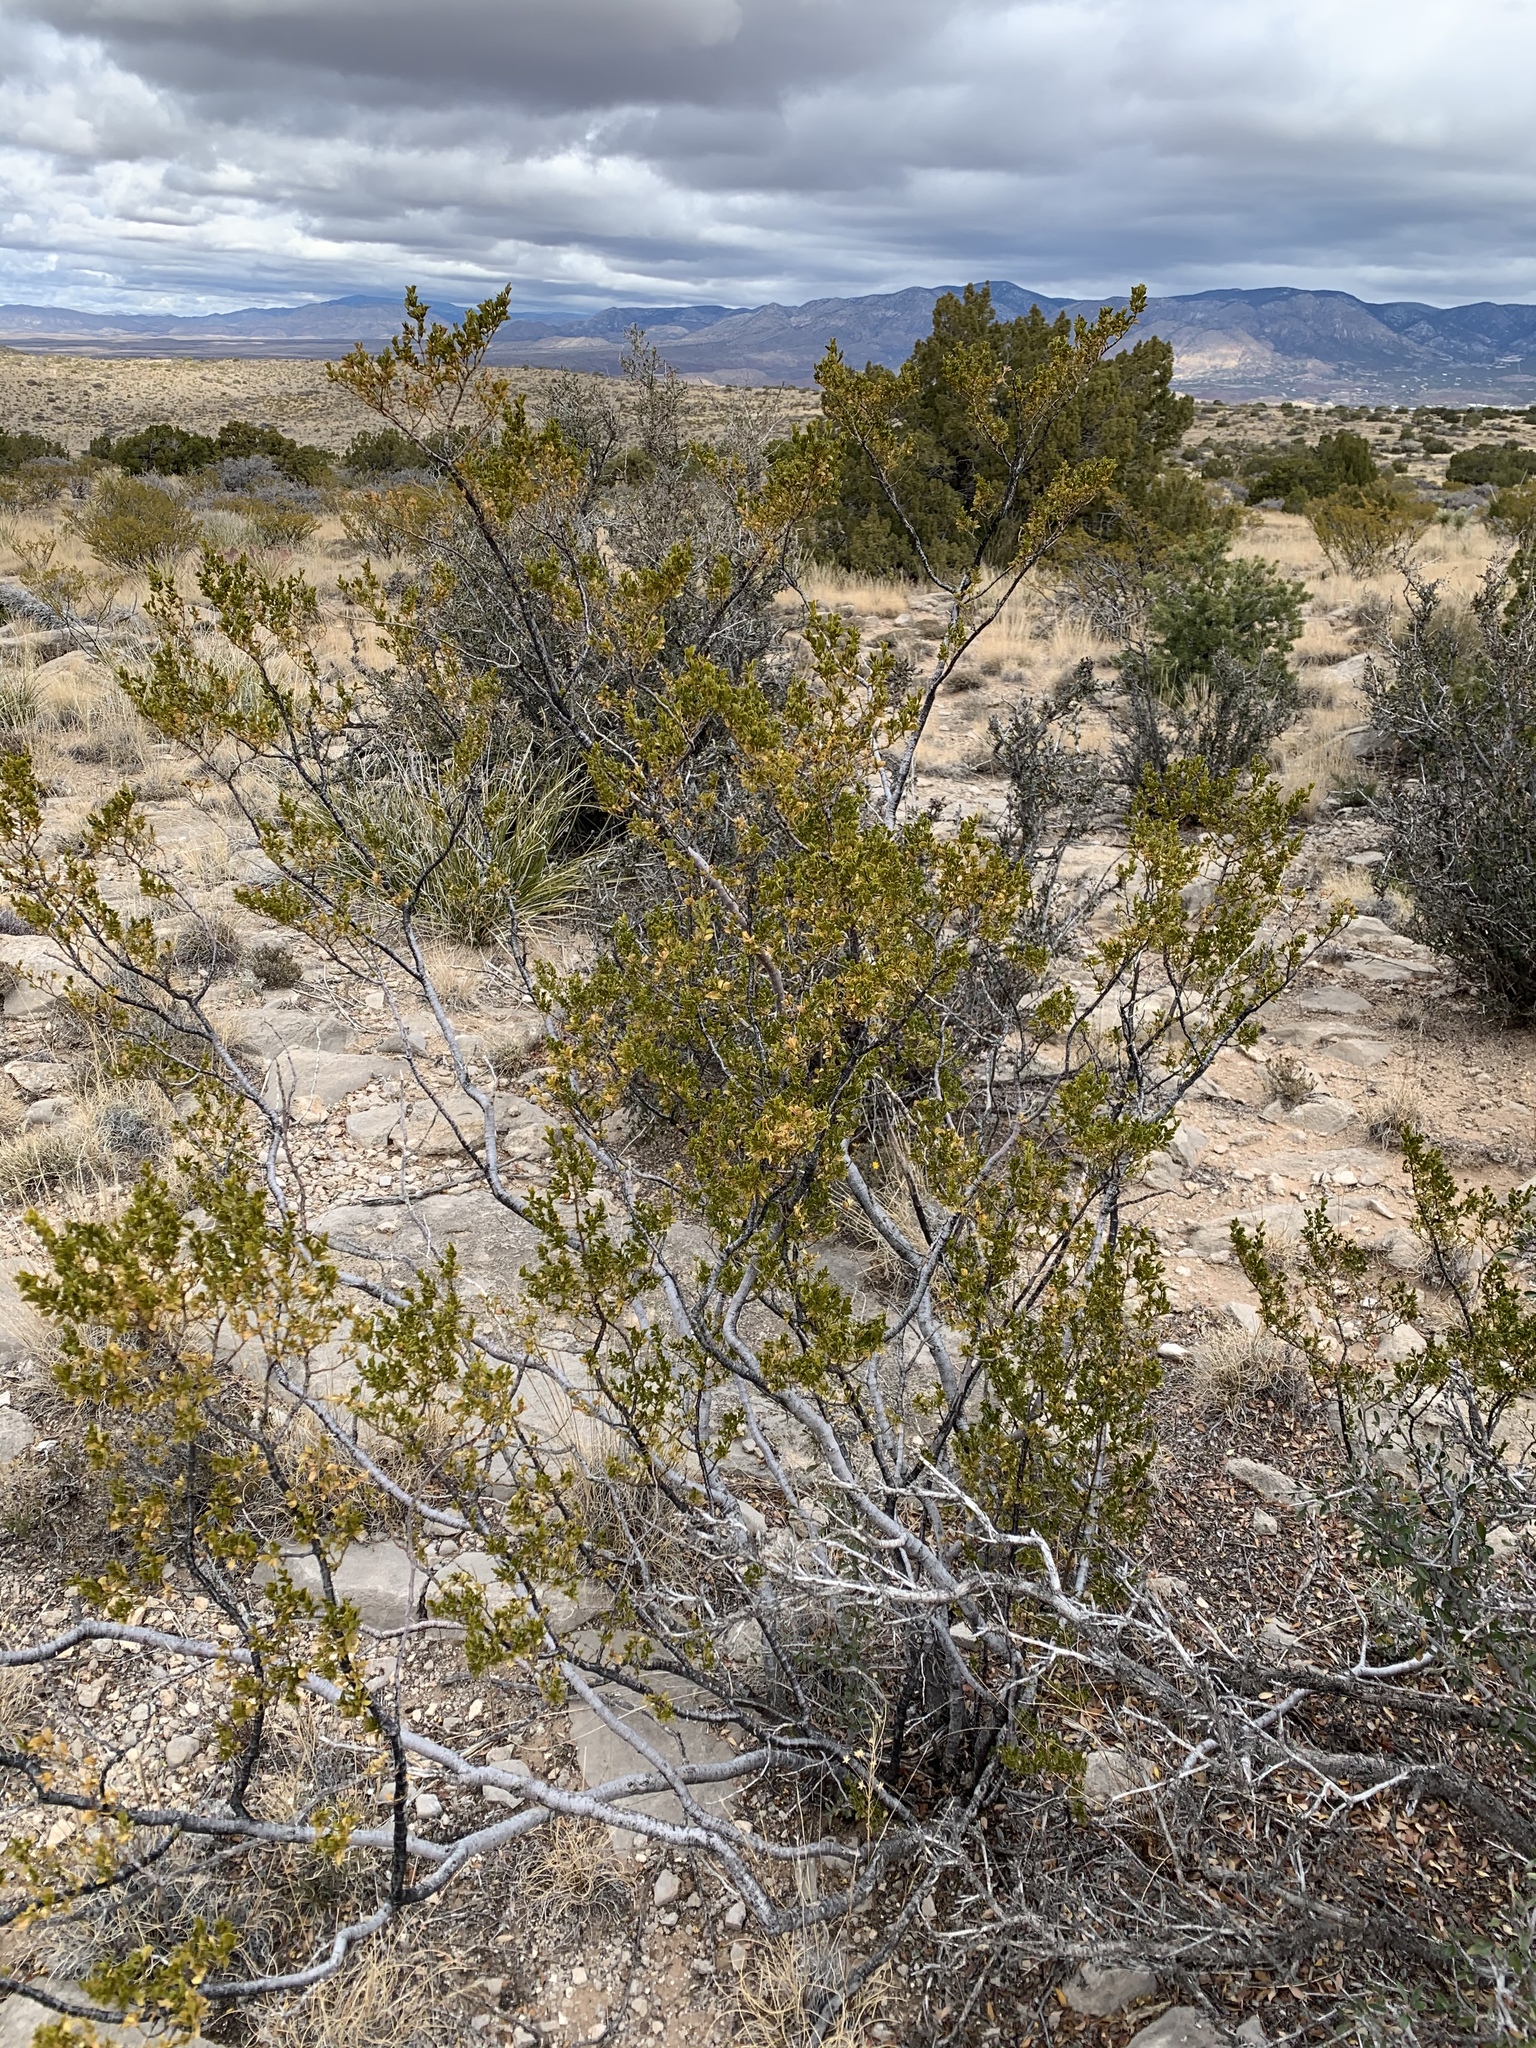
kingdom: Plantae
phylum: Tracheophyta
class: Magnoliopsida
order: Zygophyllales
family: Zygophyllaceae
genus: Larrea
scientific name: Larrea tridentata
